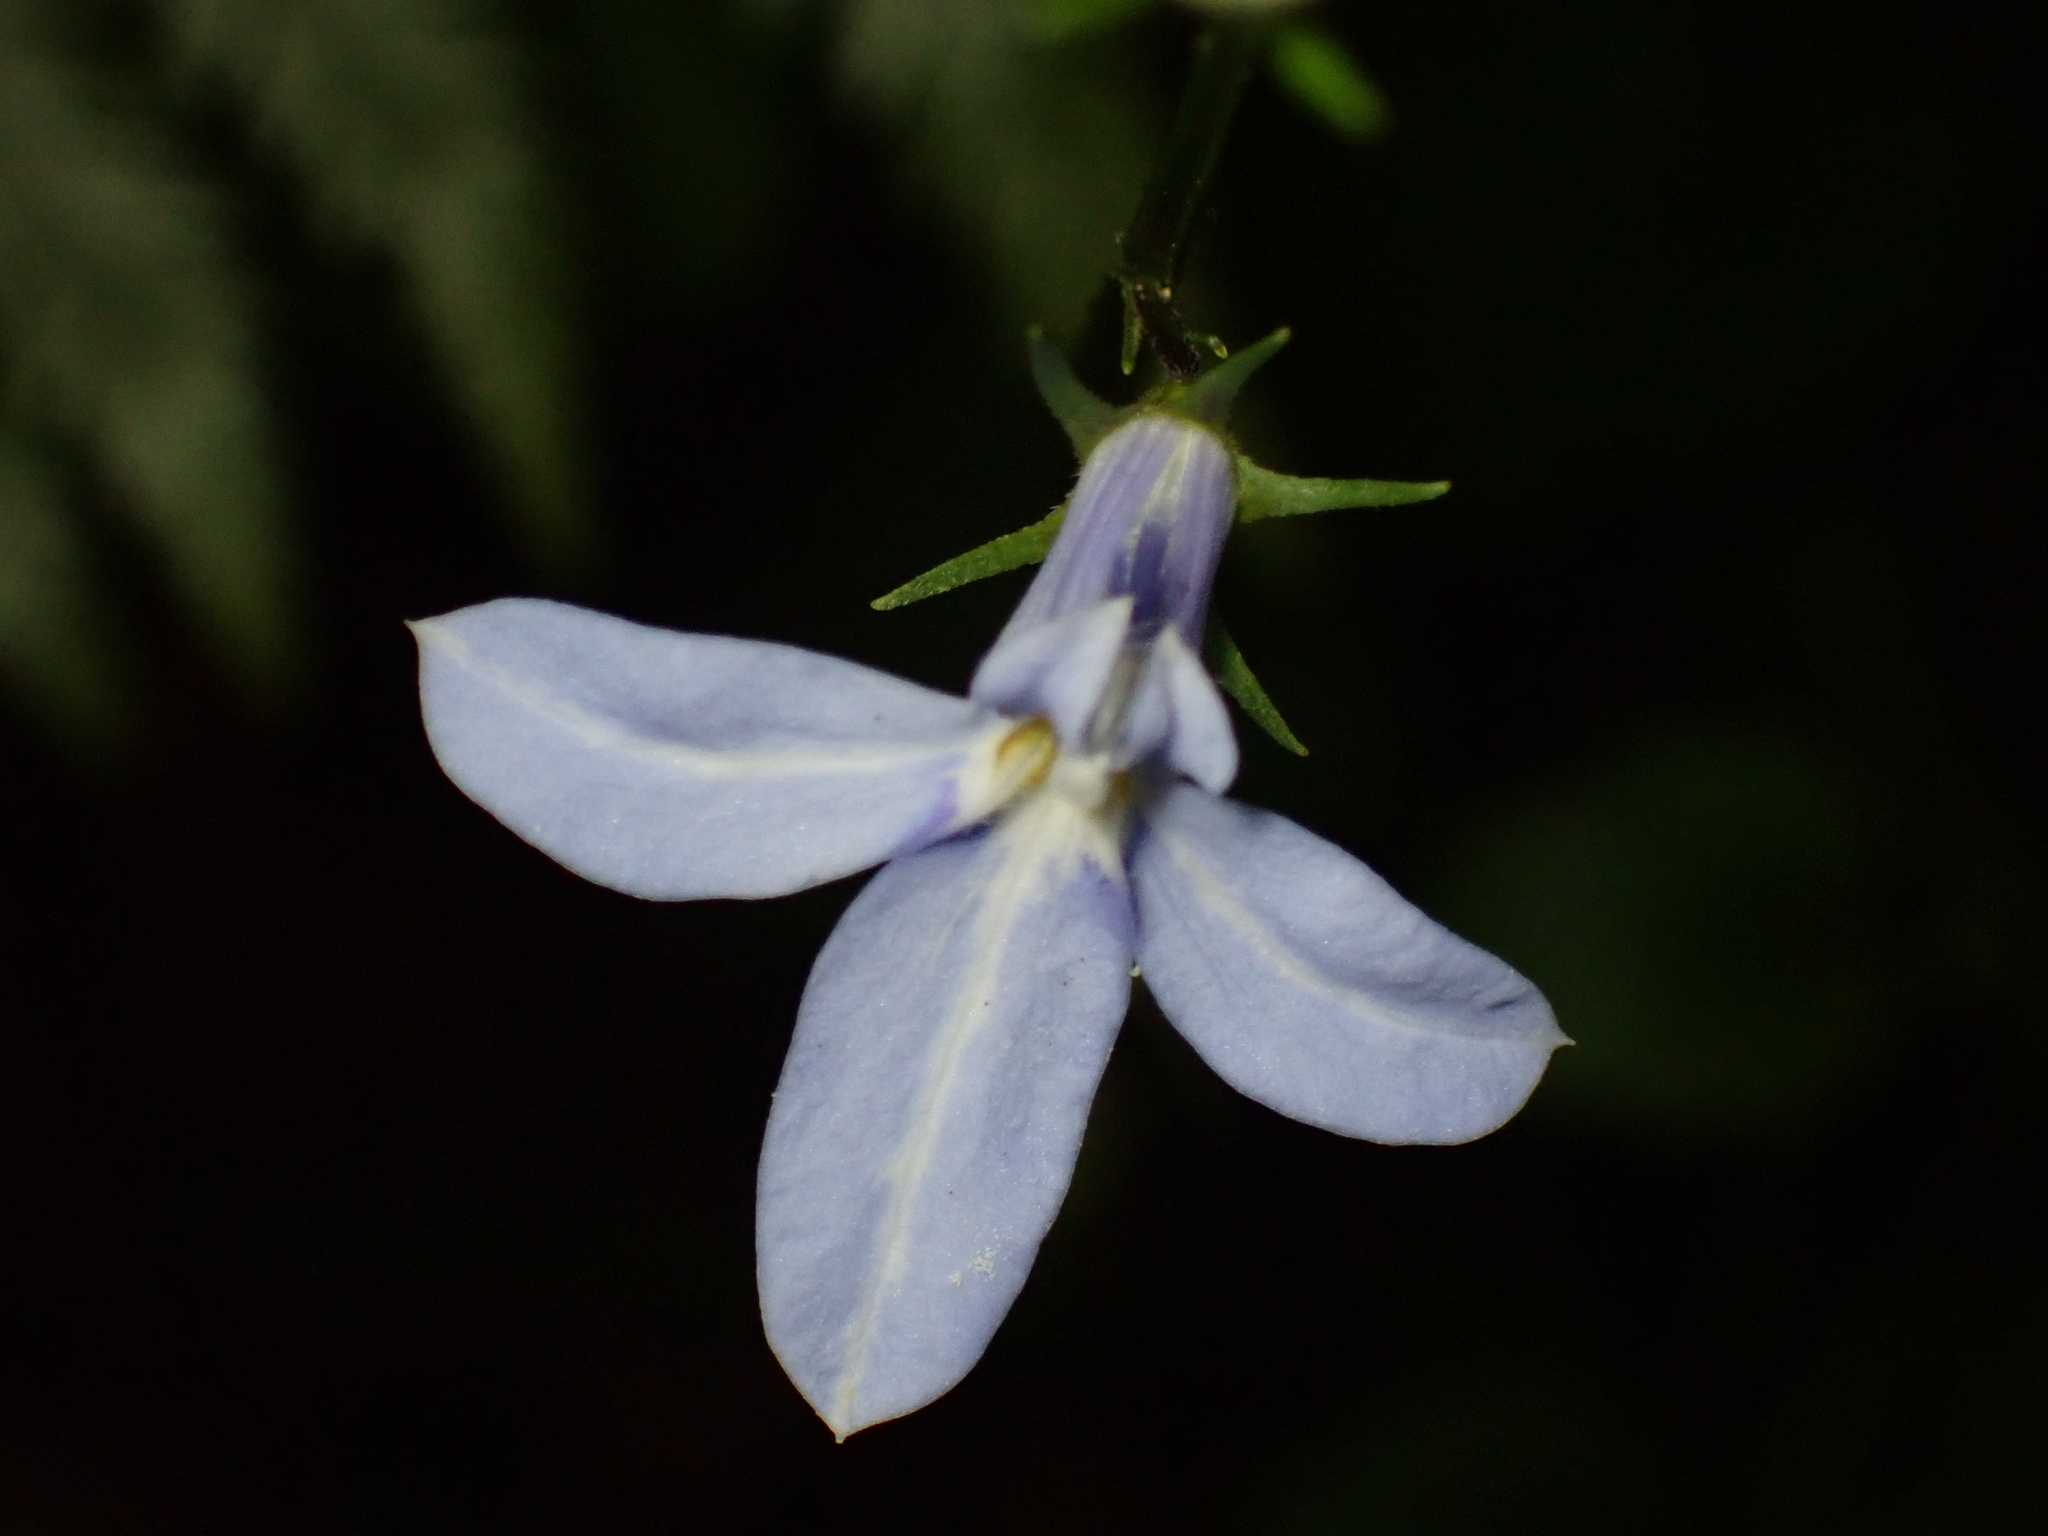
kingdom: Plantae
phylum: Tracheophyta
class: Magnoliopsida
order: Asterales
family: Campanulaceae
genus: Lobelia
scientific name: Lobelia trigonocaulis
